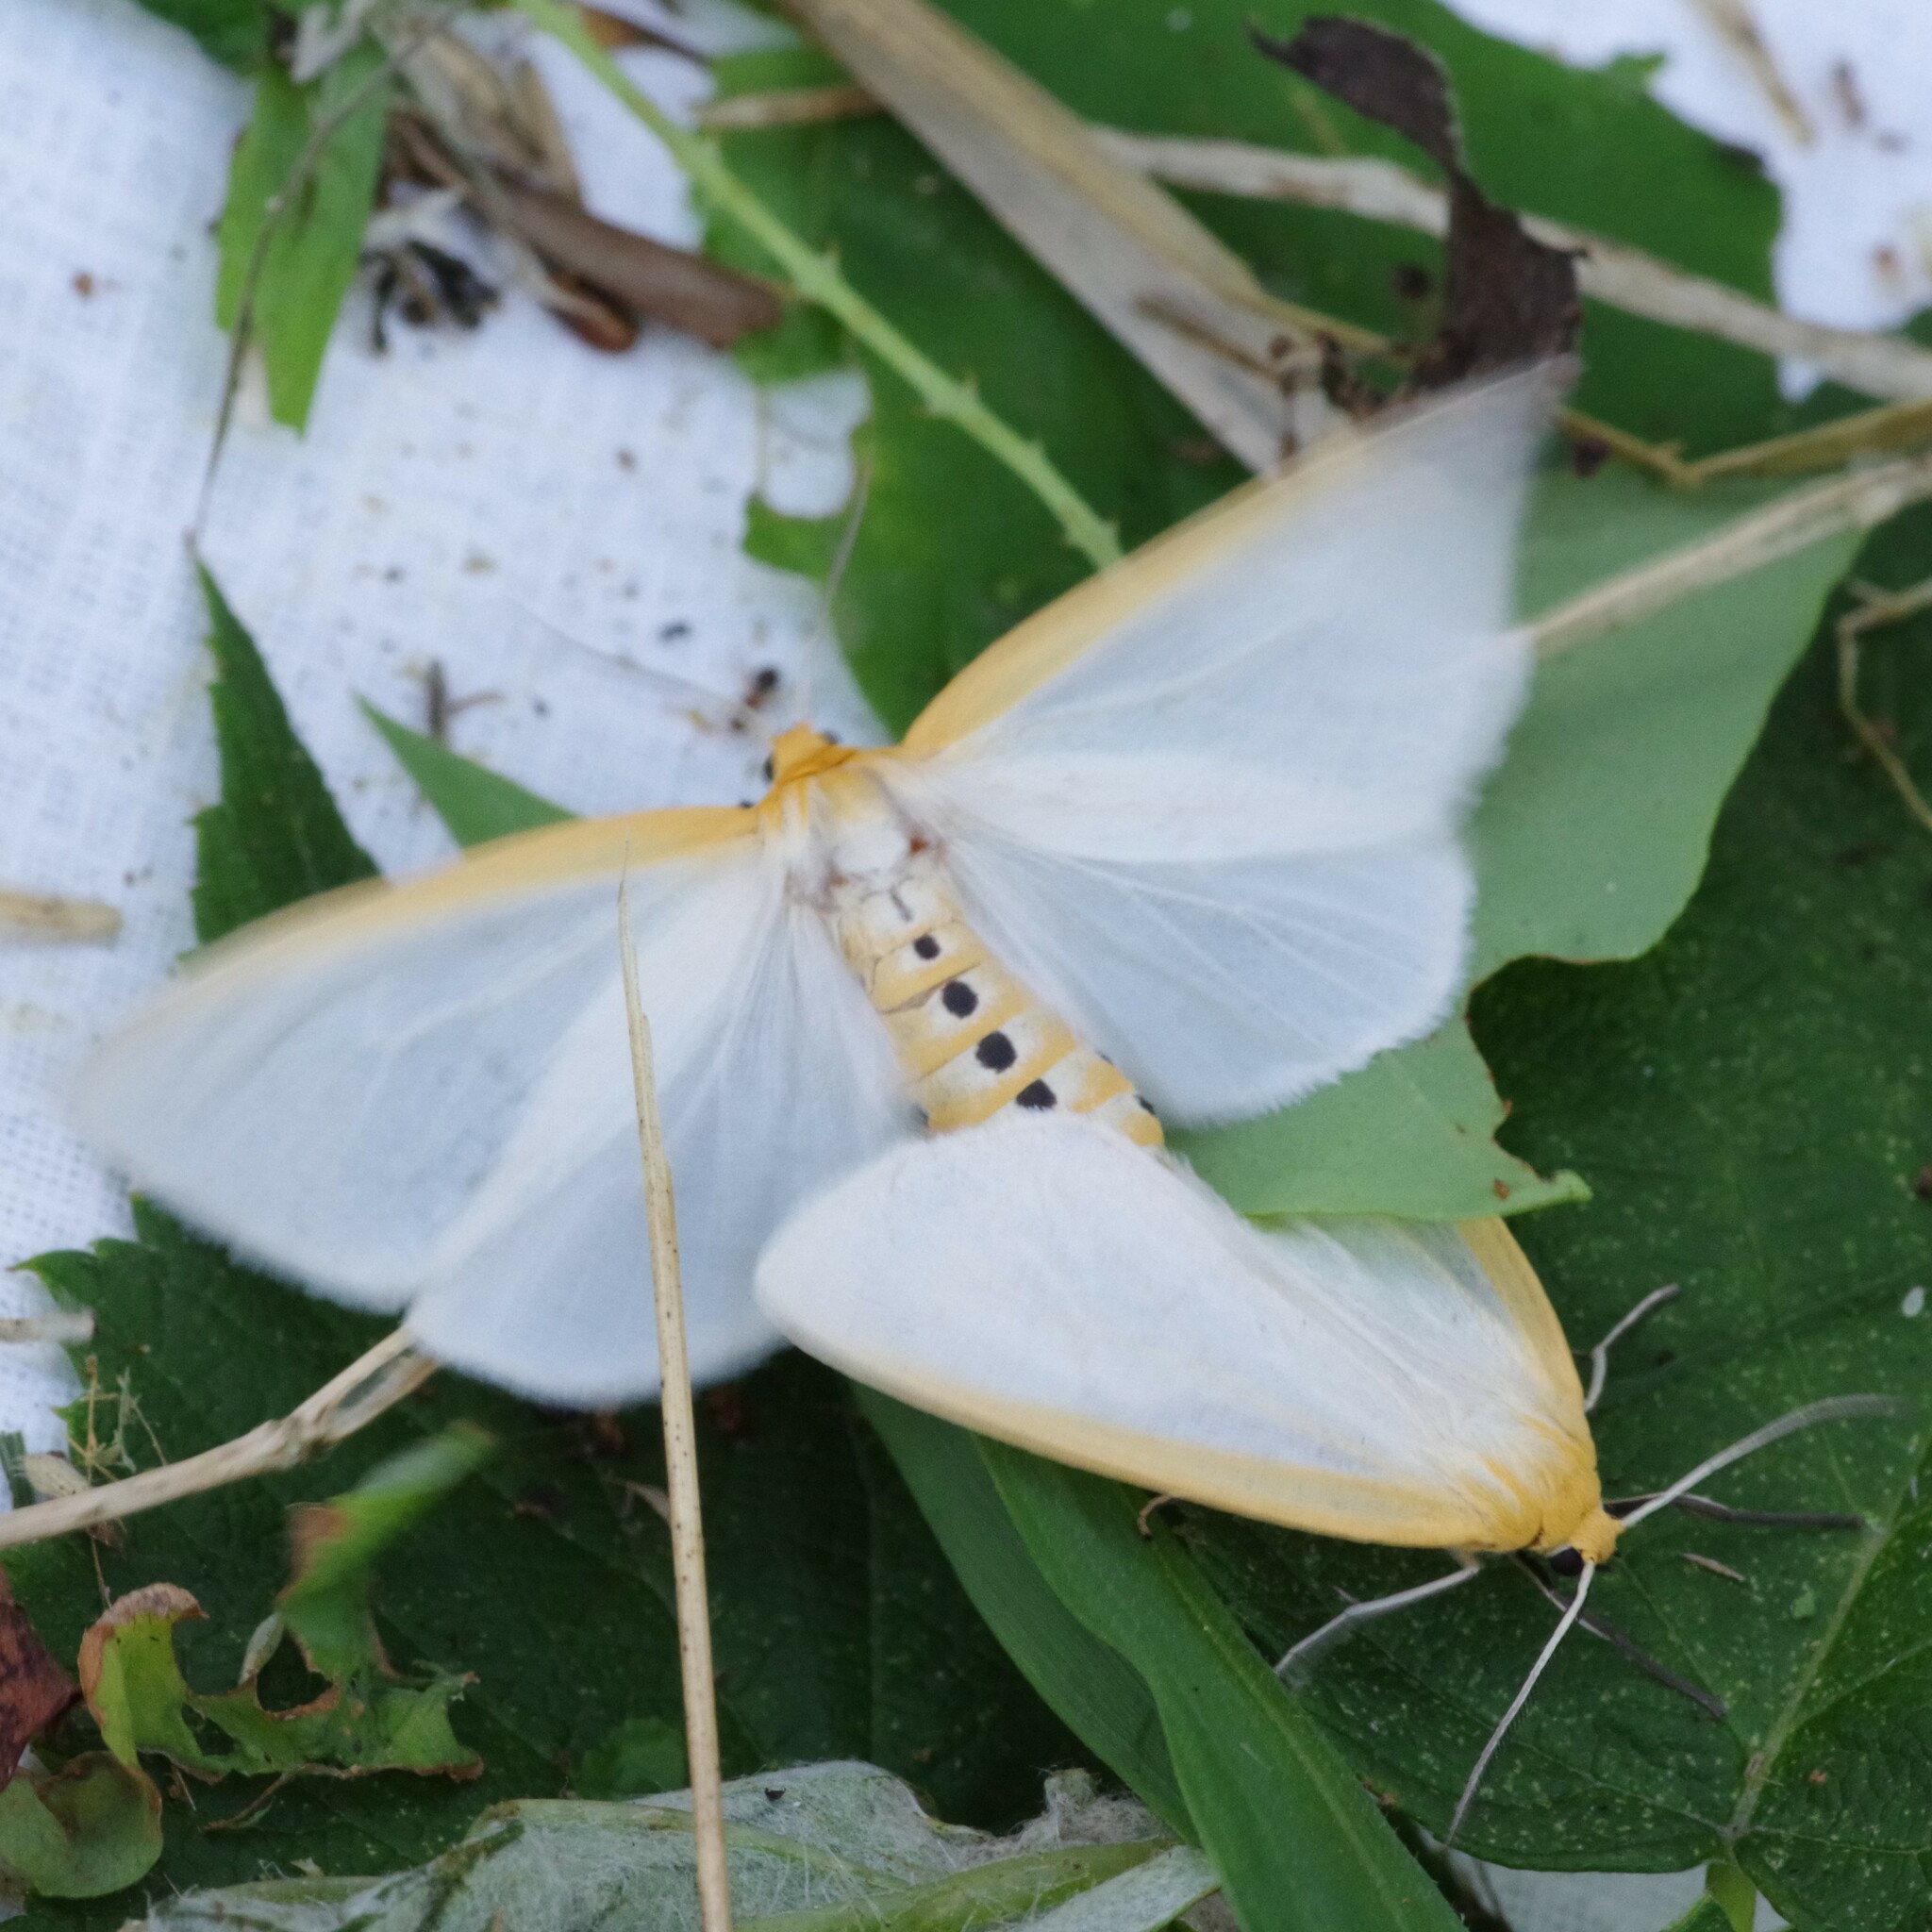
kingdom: Animalia
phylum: Arthropoda
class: Insecta
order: Lepidoptera
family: Erebidae
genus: Cycnia
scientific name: Cycnia tenera
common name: Delicate cycnia moth
